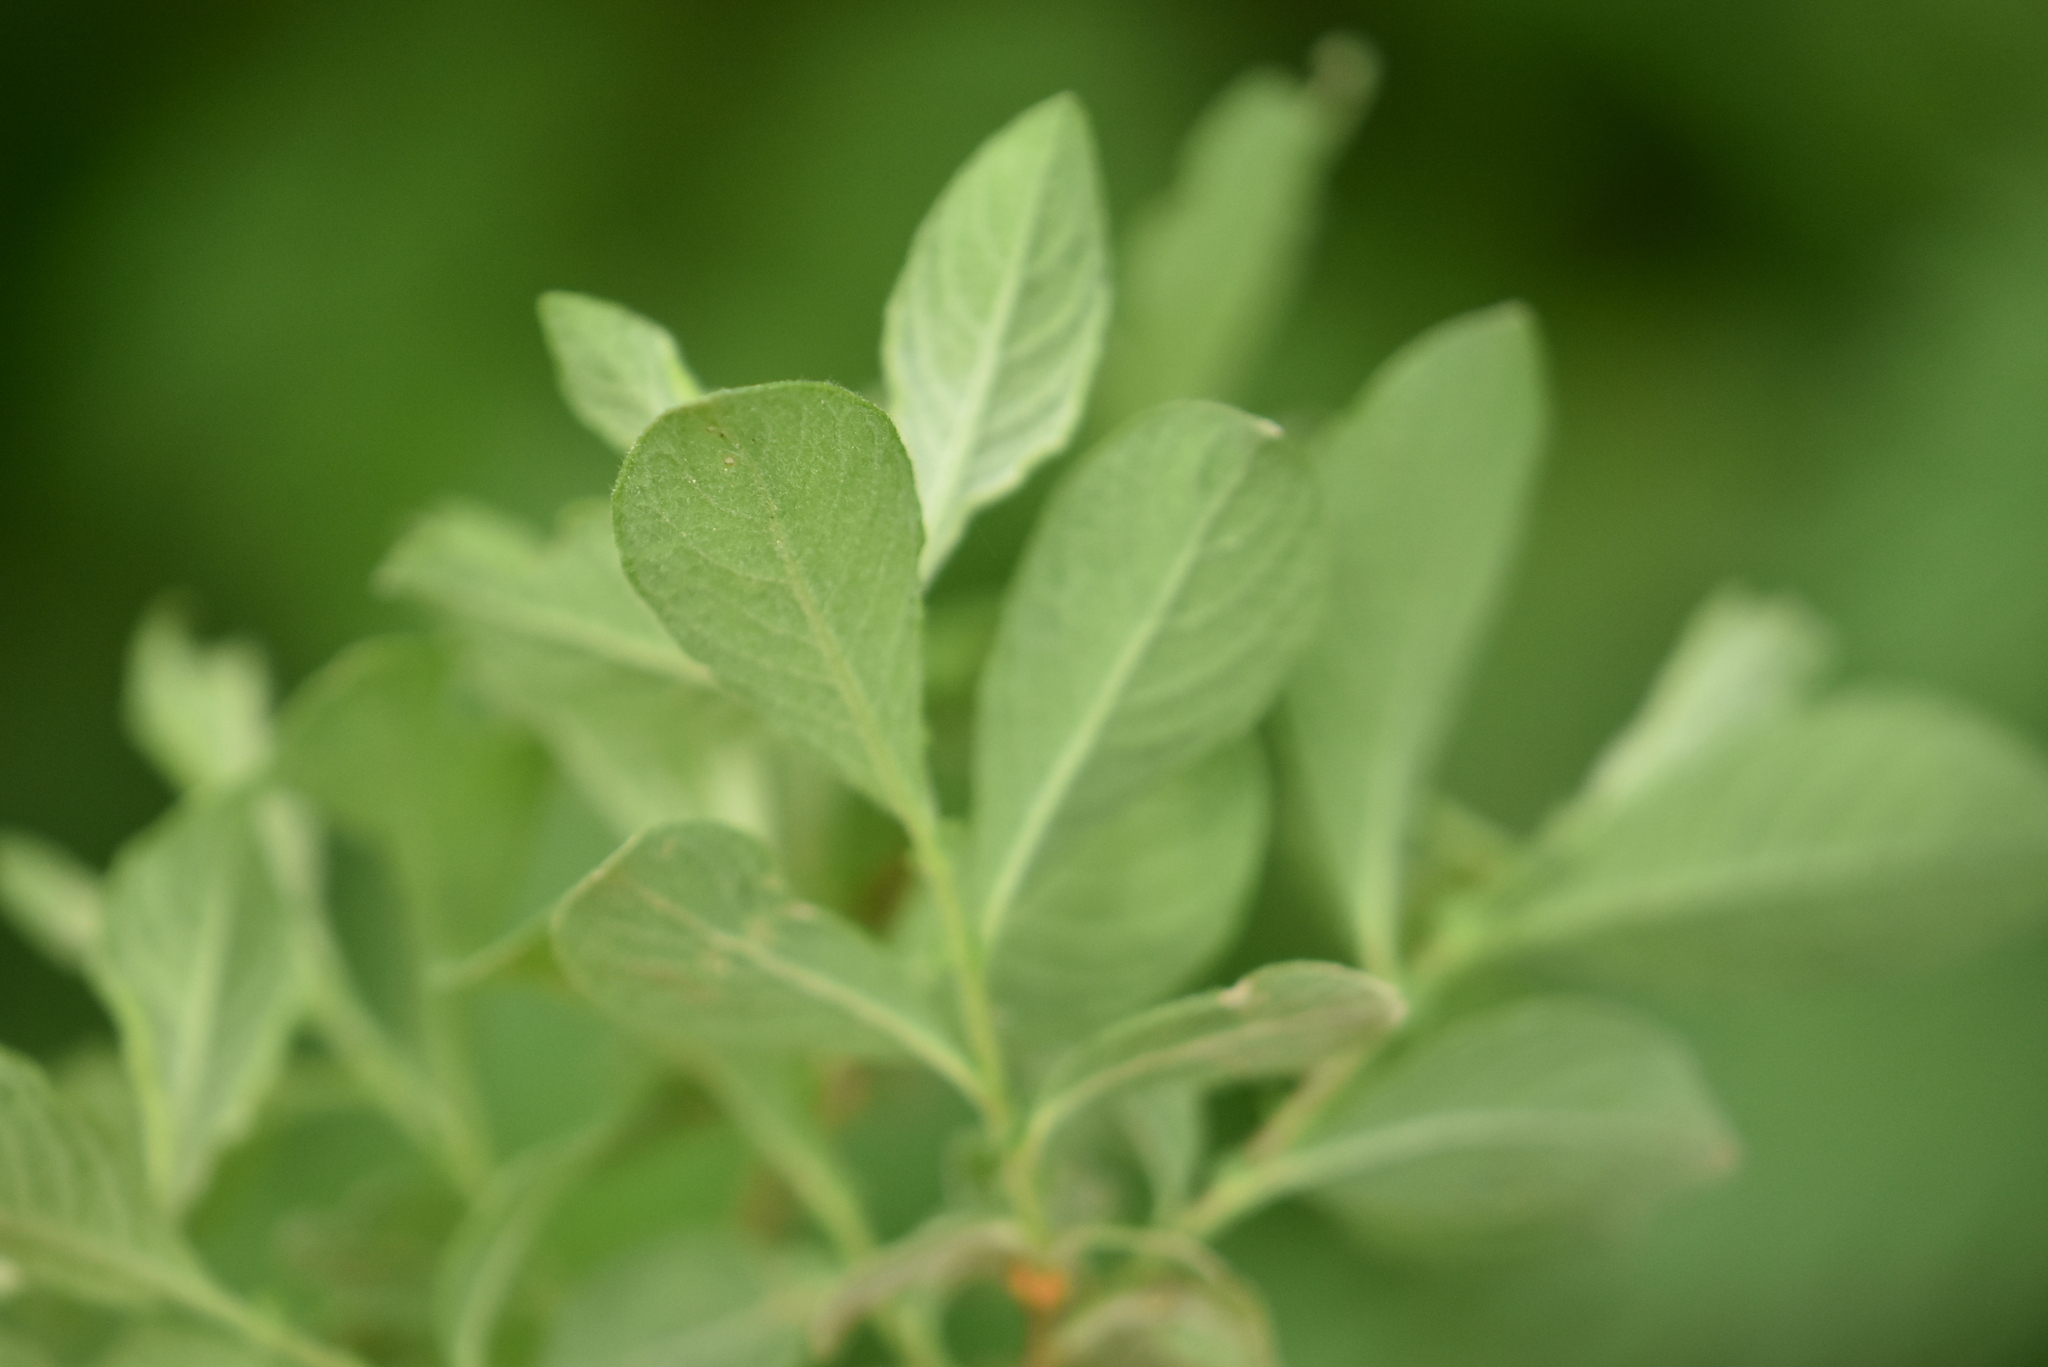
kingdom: Plantae
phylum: Tracheophyta
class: Magnoliopsida
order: Malpighiales
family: Salicaceae
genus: Salix
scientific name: Salix aurita
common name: Eared willow
